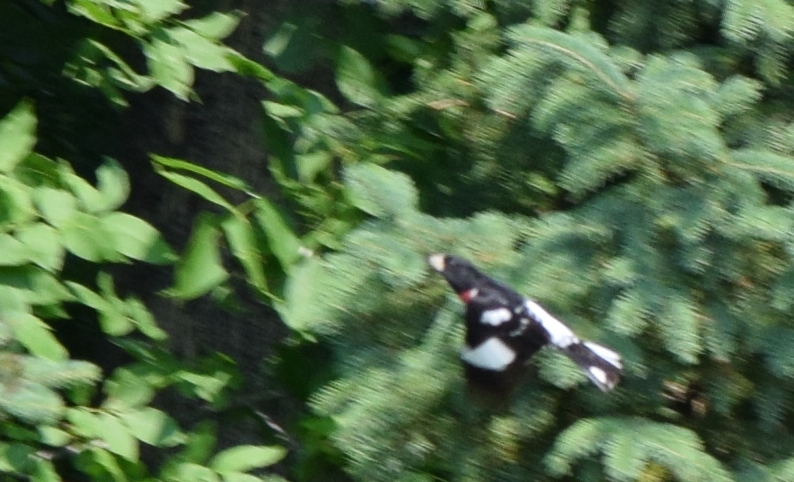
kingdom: Animalia
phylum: Chordata
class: Aves
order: Passeriformes
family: Cardinalidae
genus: Pheucticus
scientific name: Pheucticus ludovicianus
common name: Rose-breasted grosbeak
